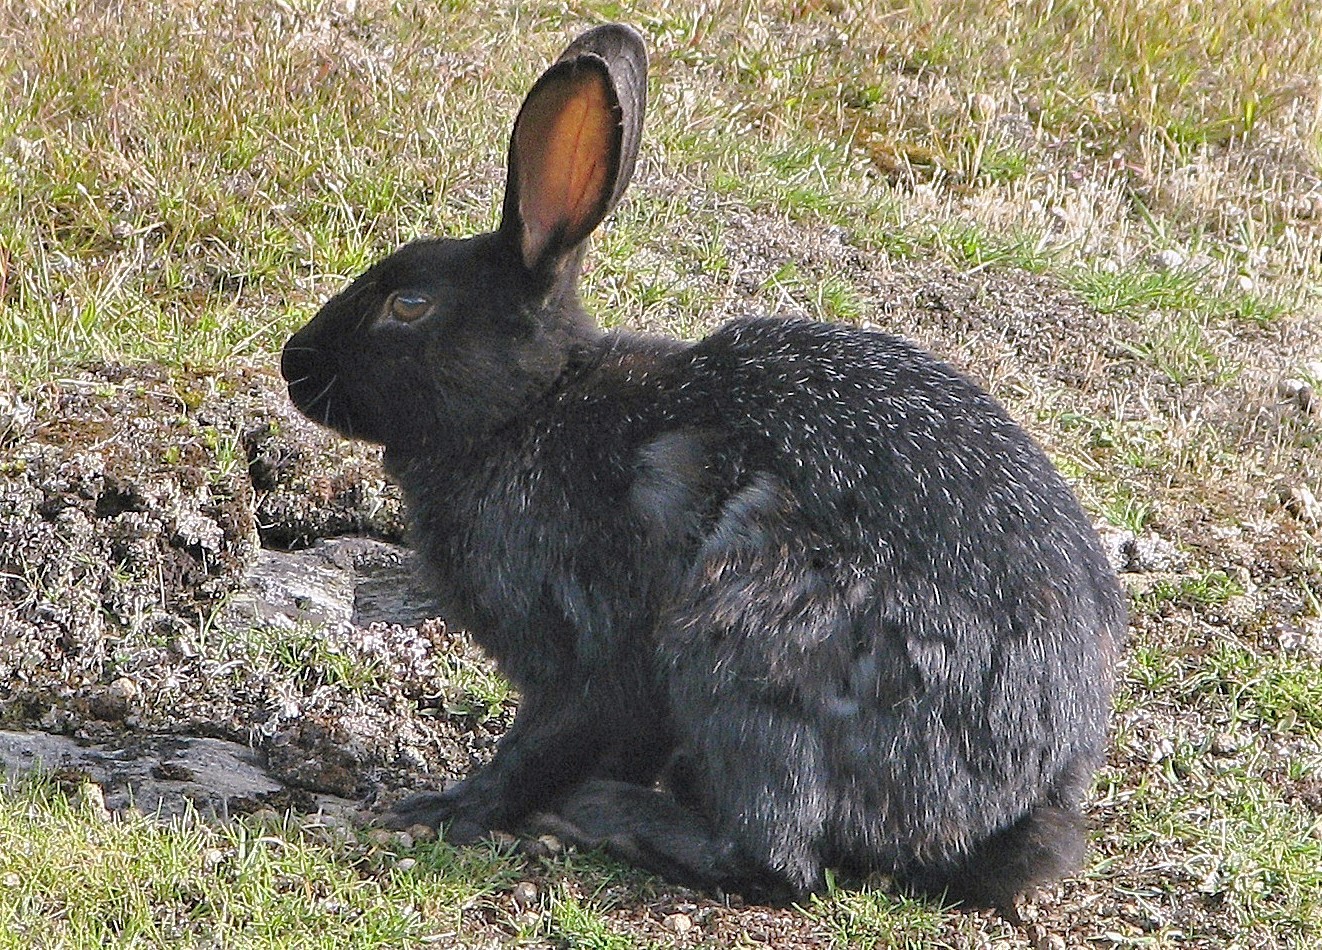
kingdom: Animalia
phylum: Chordata
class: Mammalia
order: Lagomorpha
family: Leporidae
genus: Oryctolagus
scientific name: Oryctolagus cuniculus
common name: European rabbit
